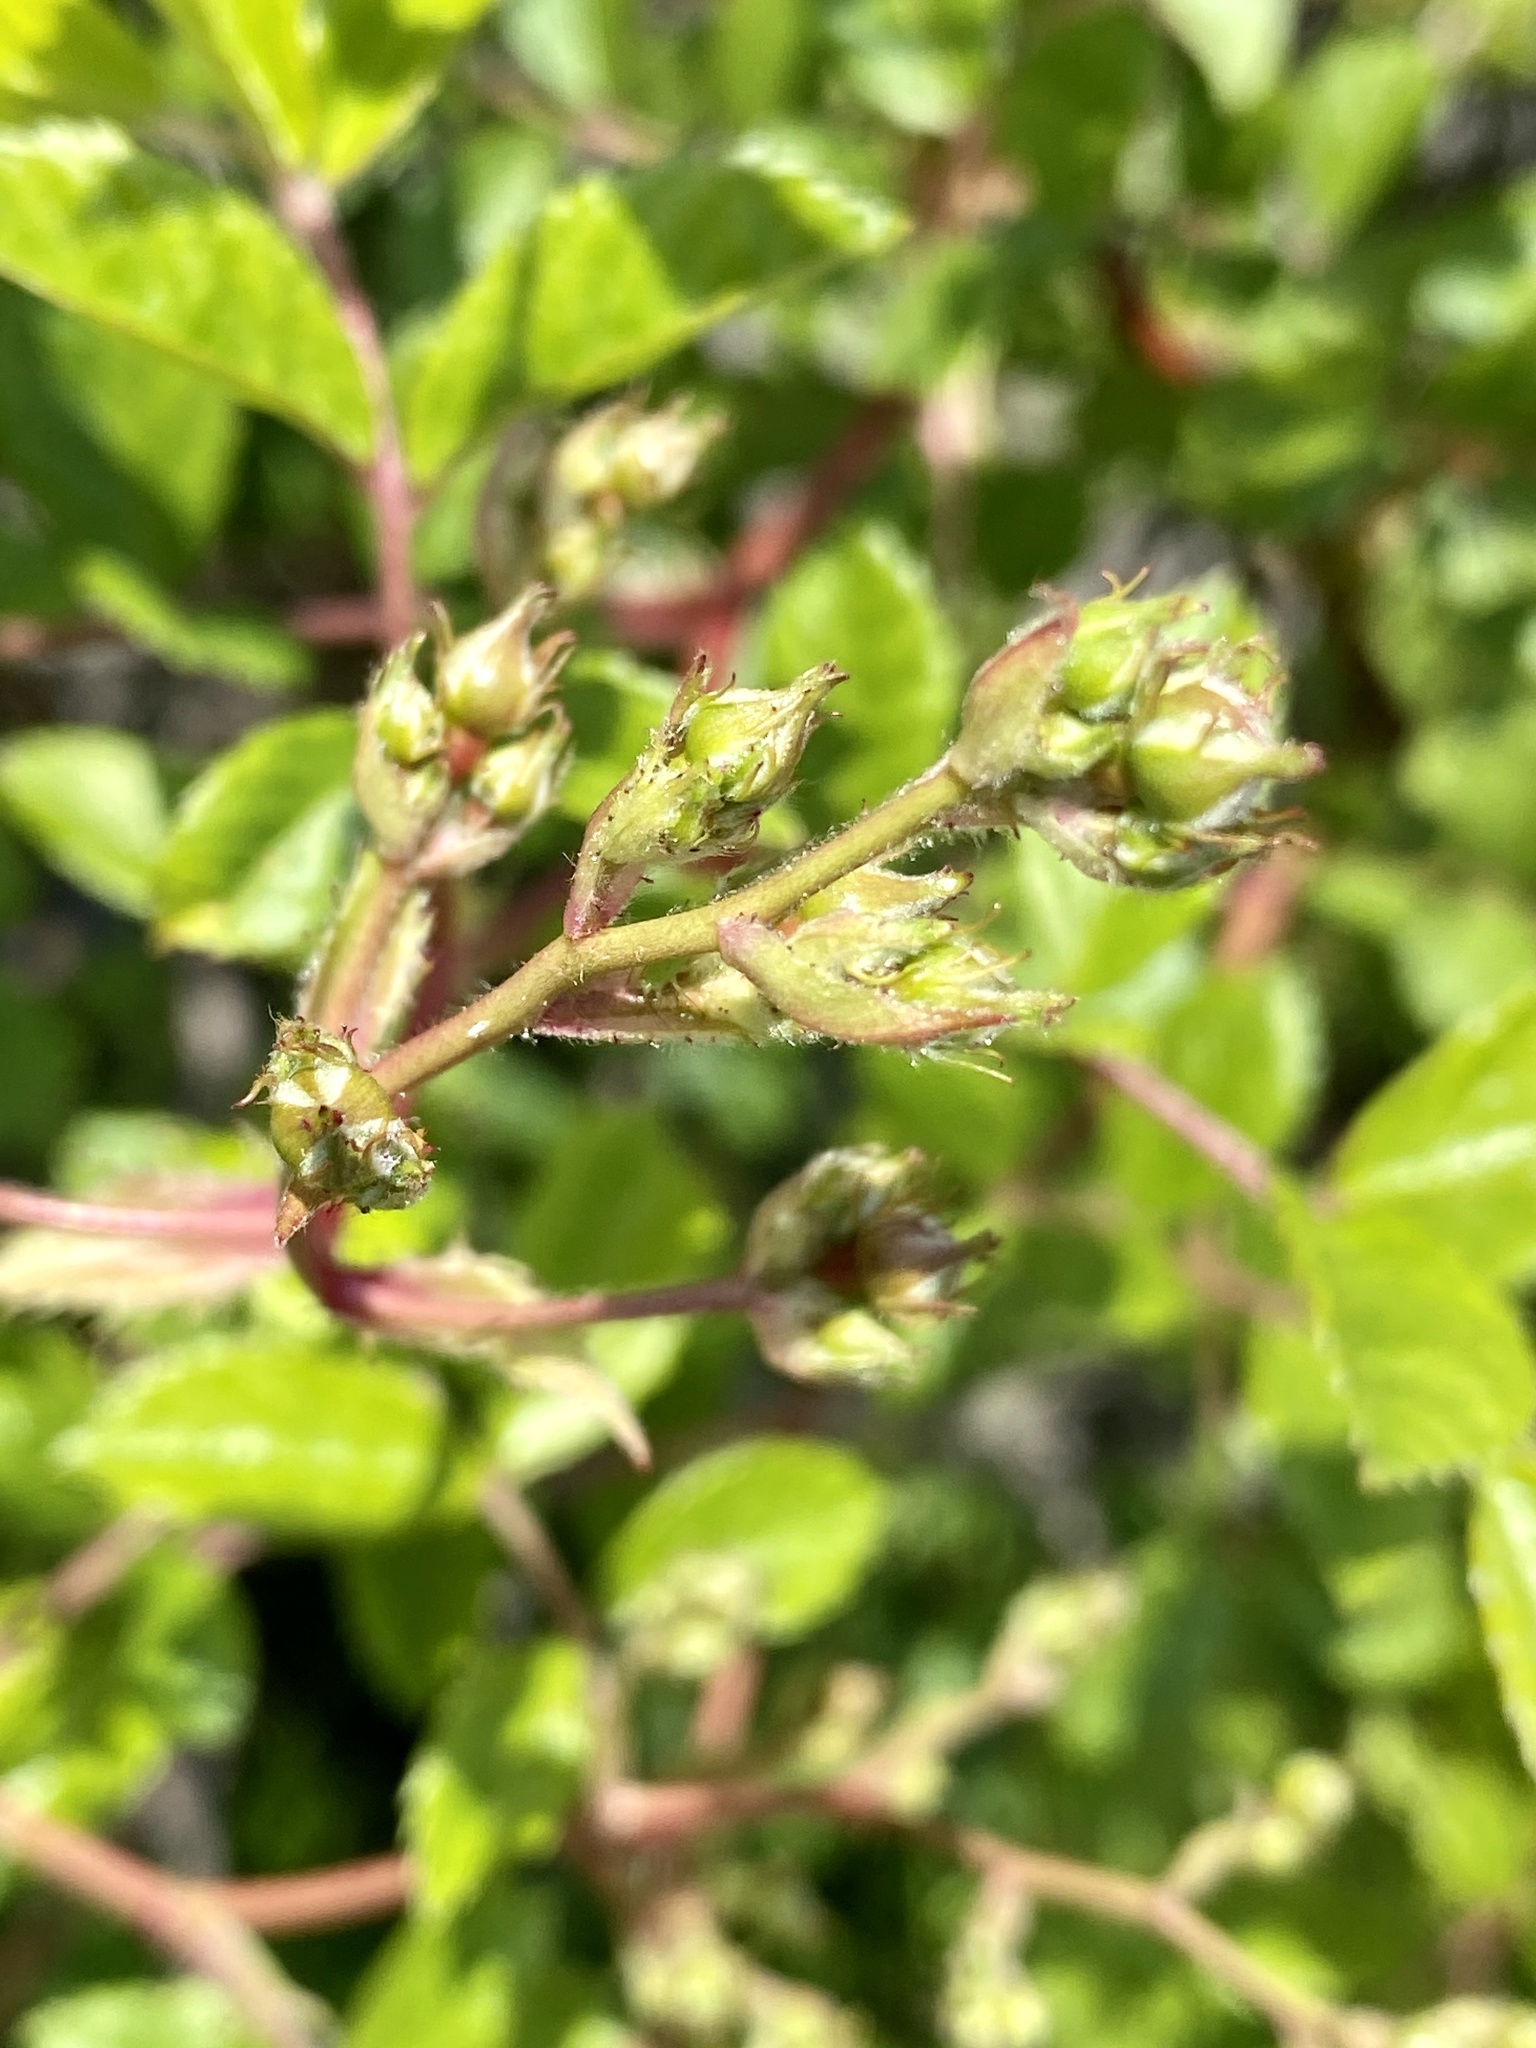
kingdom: Plantae
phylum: Tracheophyta
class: Magnoliopsida
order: Rosales
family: Rosaceae
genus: Rosa
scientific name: Rosa multiflora
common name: Multiflora rose
